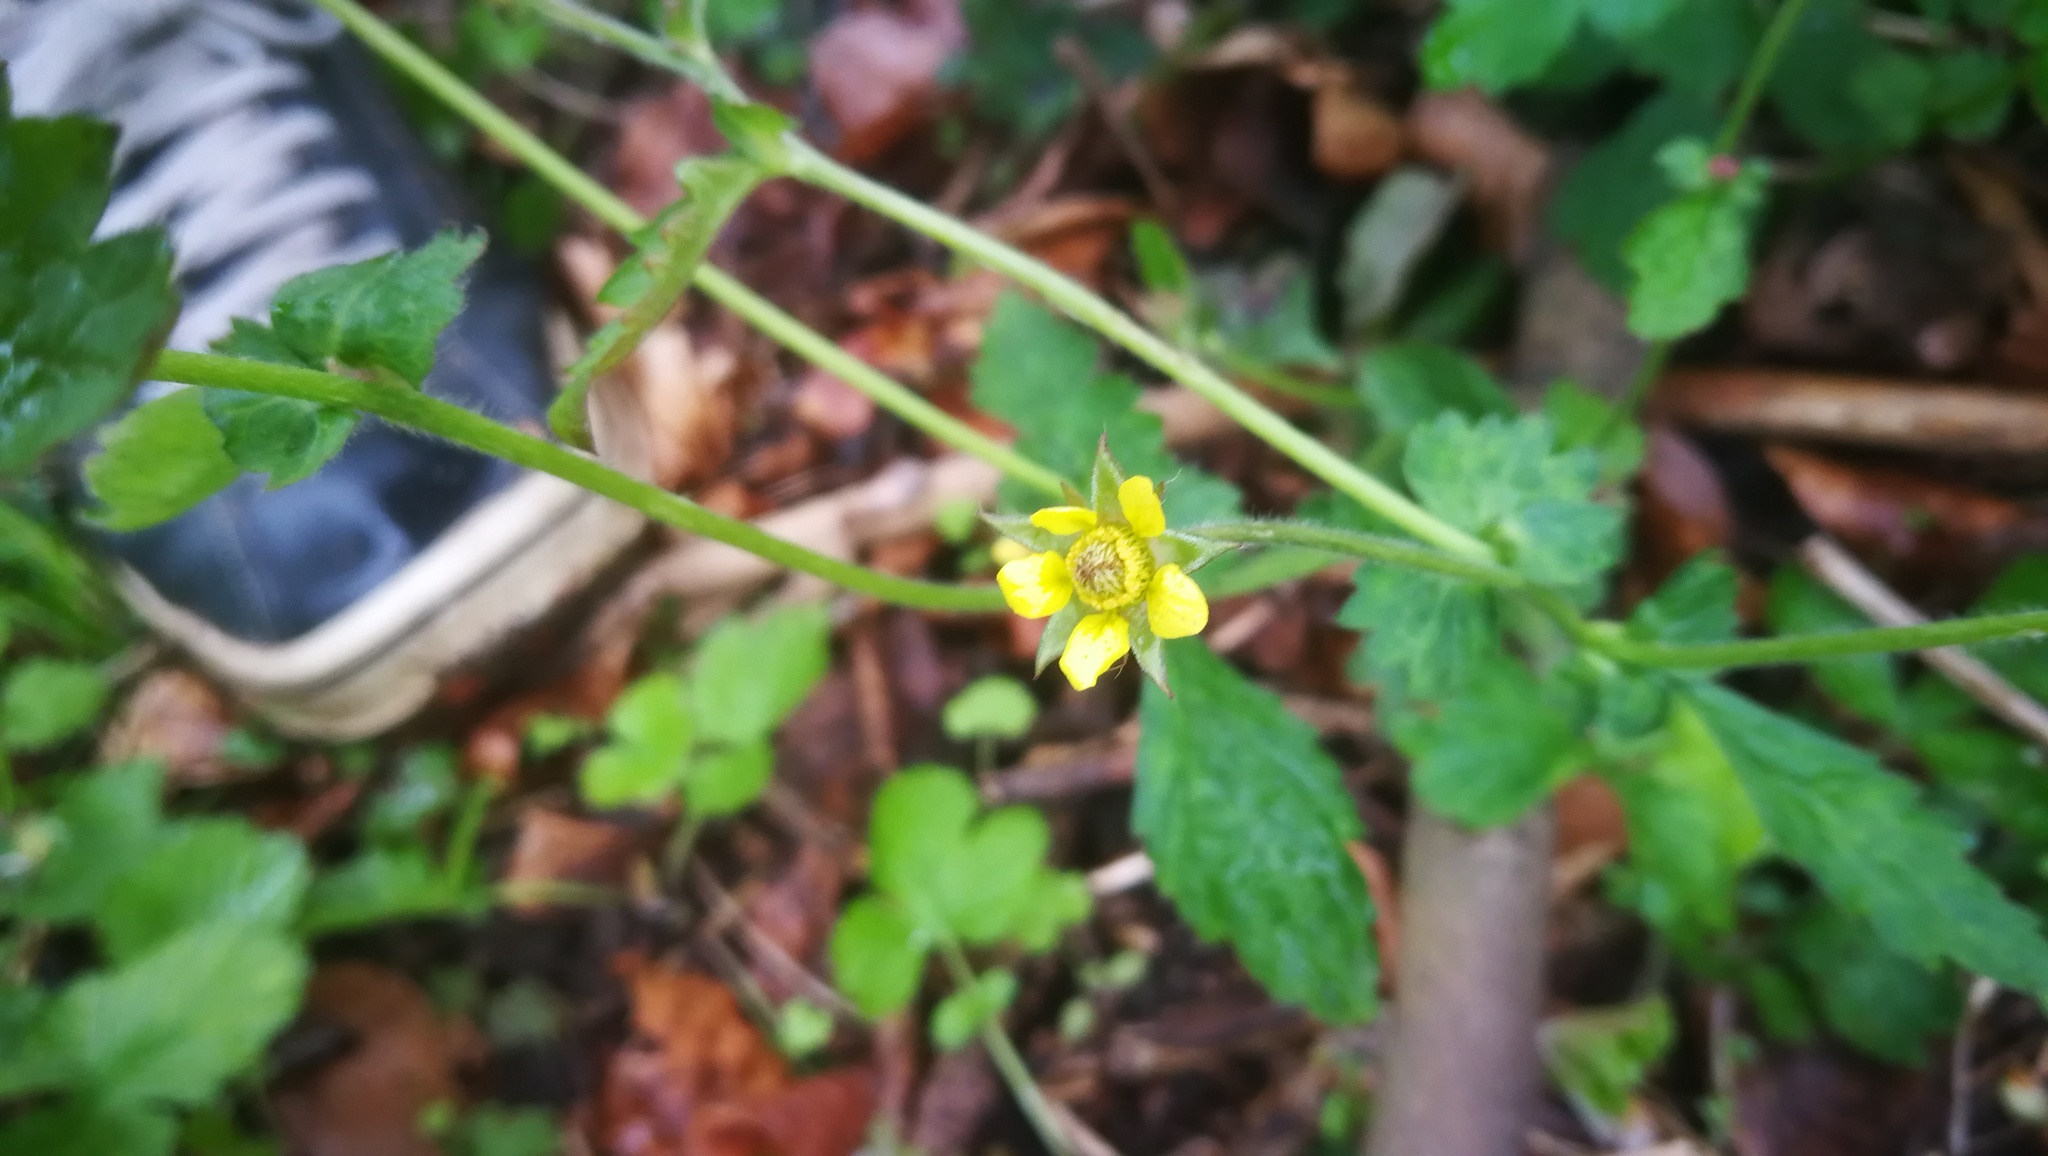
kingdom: Plantae
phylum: Tracheophyta
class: Magnoliopsida
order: Rosales
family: Rosaceae
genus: Geum
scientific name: Geum urbanum
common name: Wood avens
